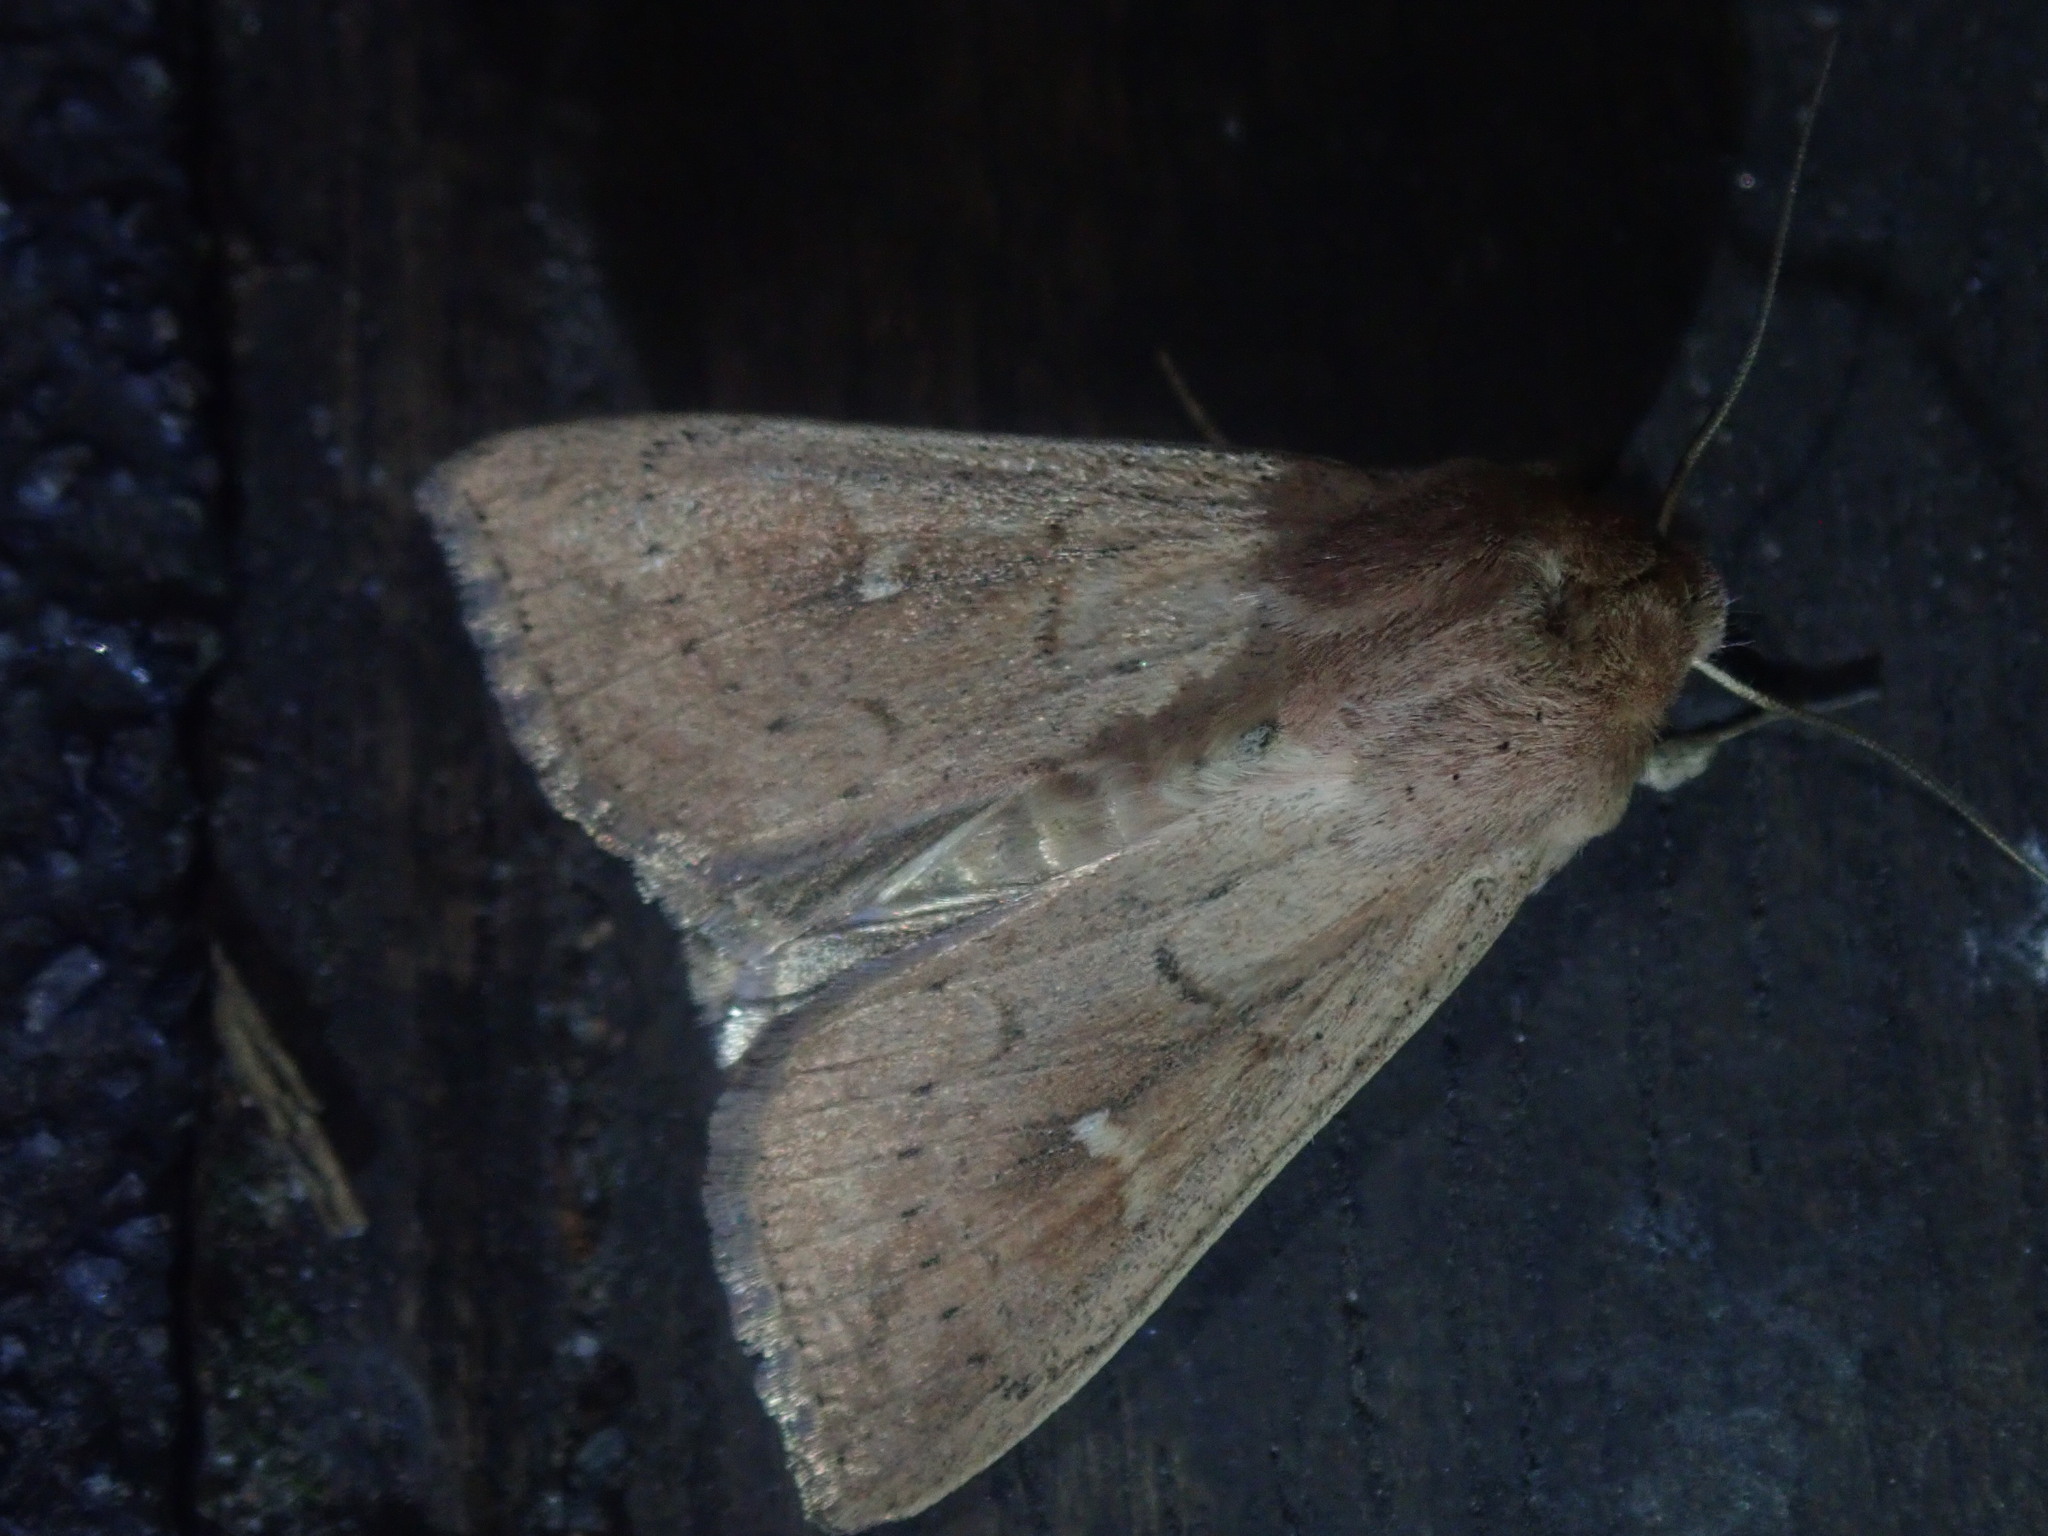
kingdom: Animalia
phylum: Arthropoda
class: Insecta
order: Lepidoptera
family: Noctuidae
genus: Mythimna
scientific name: Mythimna ferrago
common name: Clay
